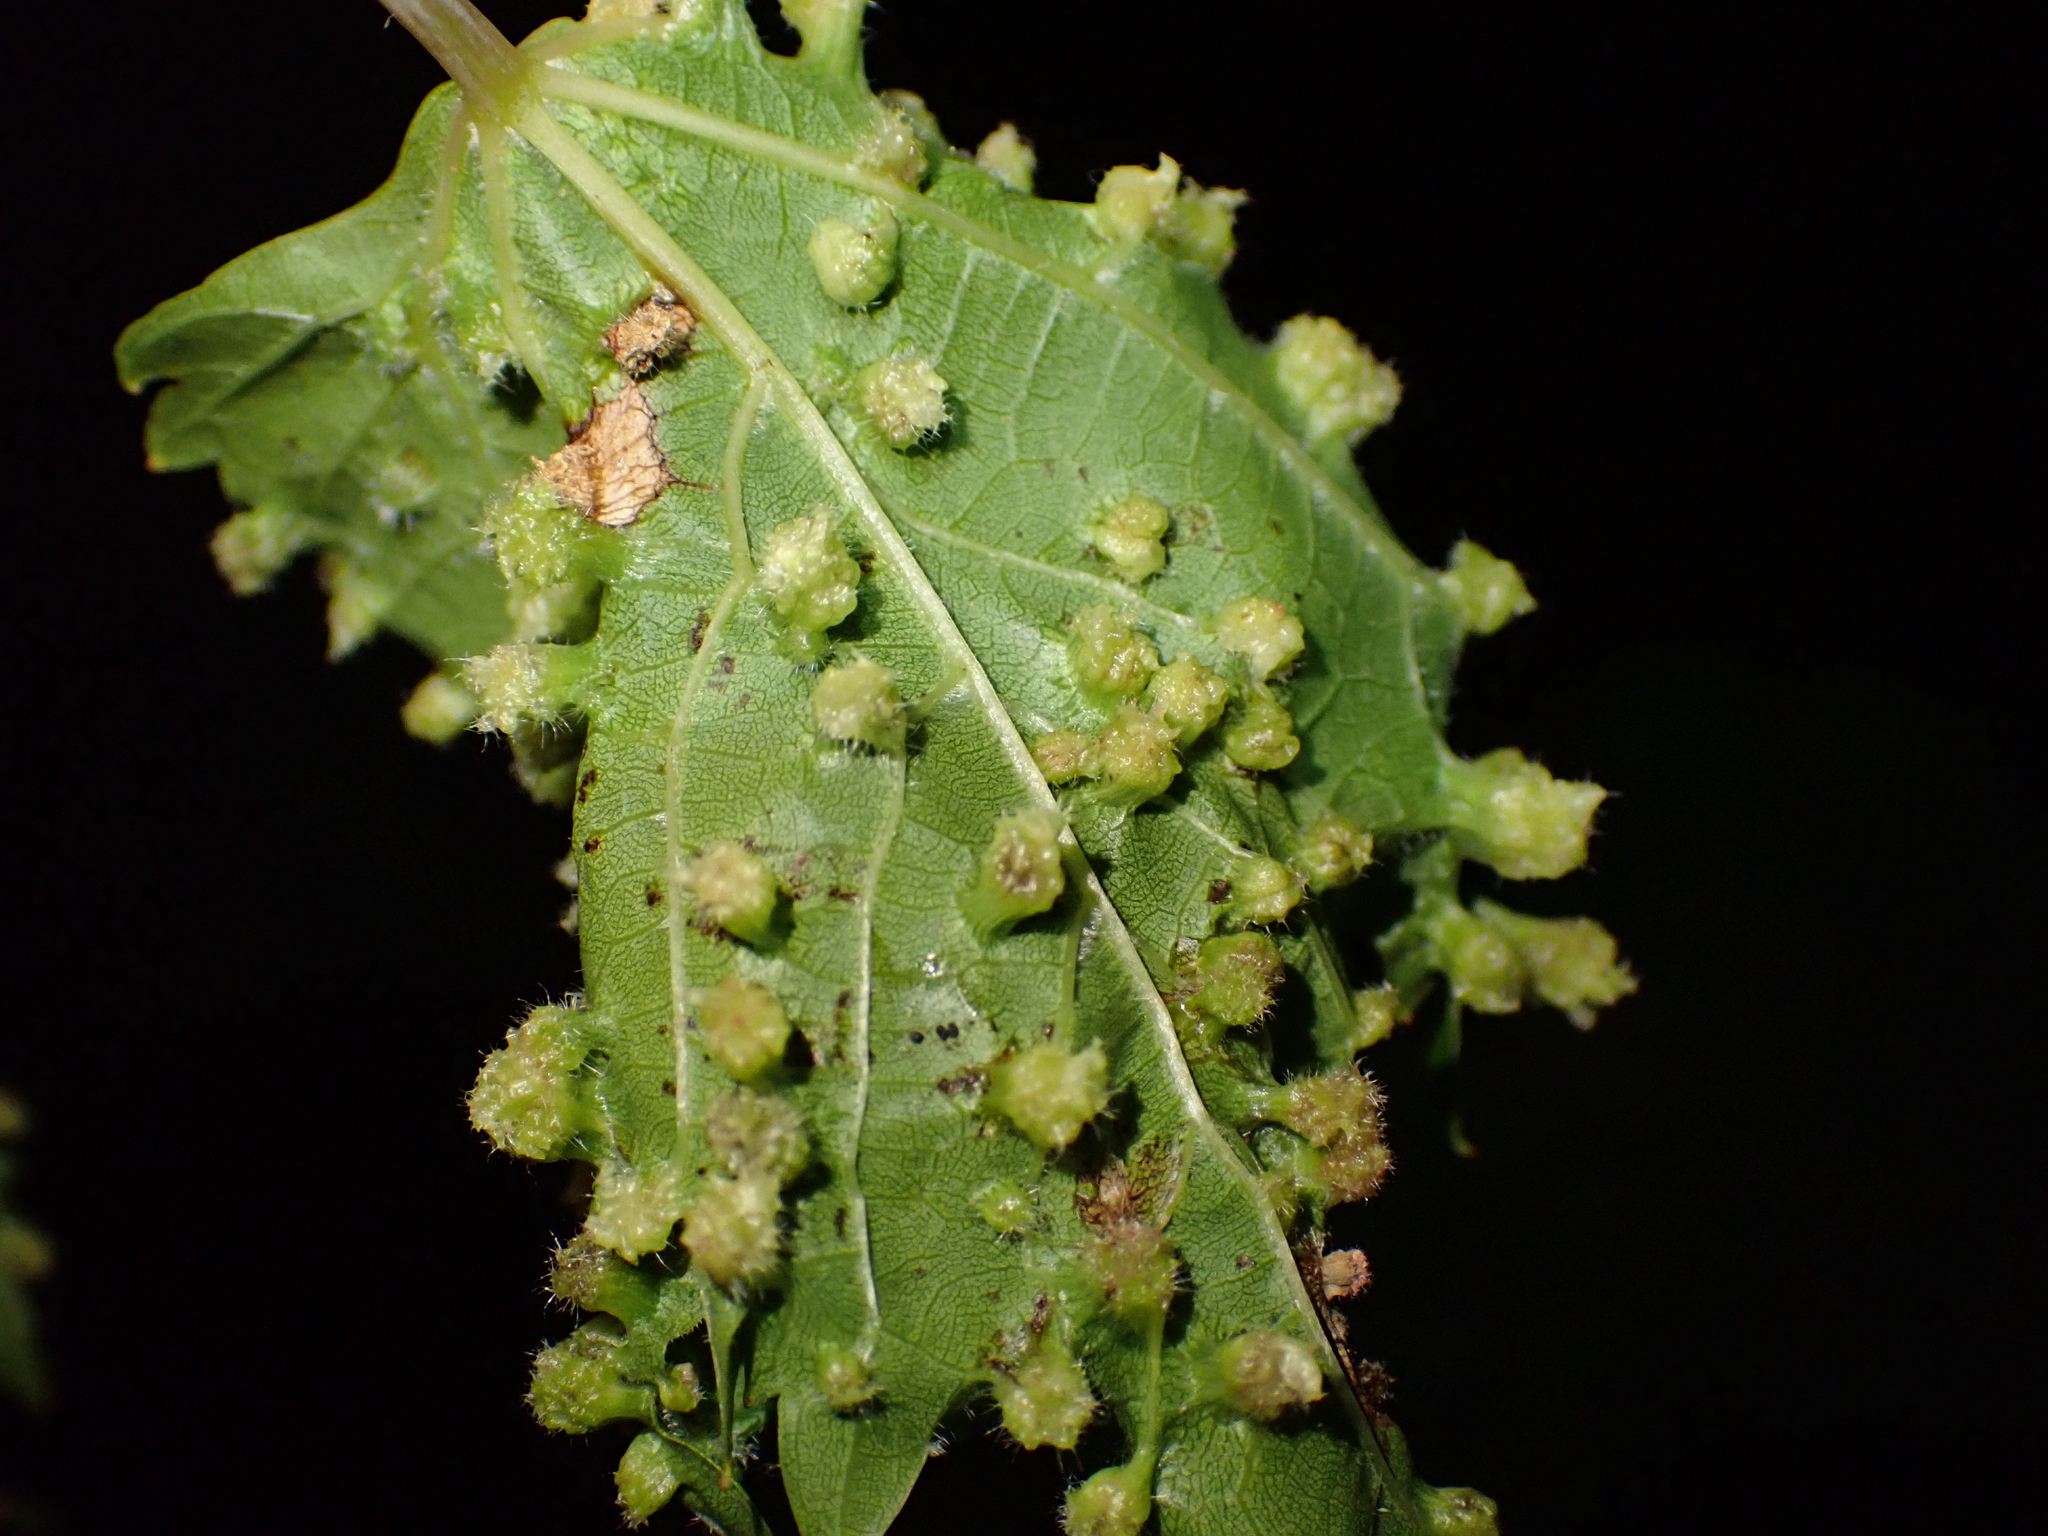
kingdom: Animalia
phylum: Arthropoda
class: Insecta
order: Hemiptera
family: Phylloxeridae
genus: Daktulosphaira
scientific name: Daktulosphaira vitifoliae
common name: Grape phylloxera
